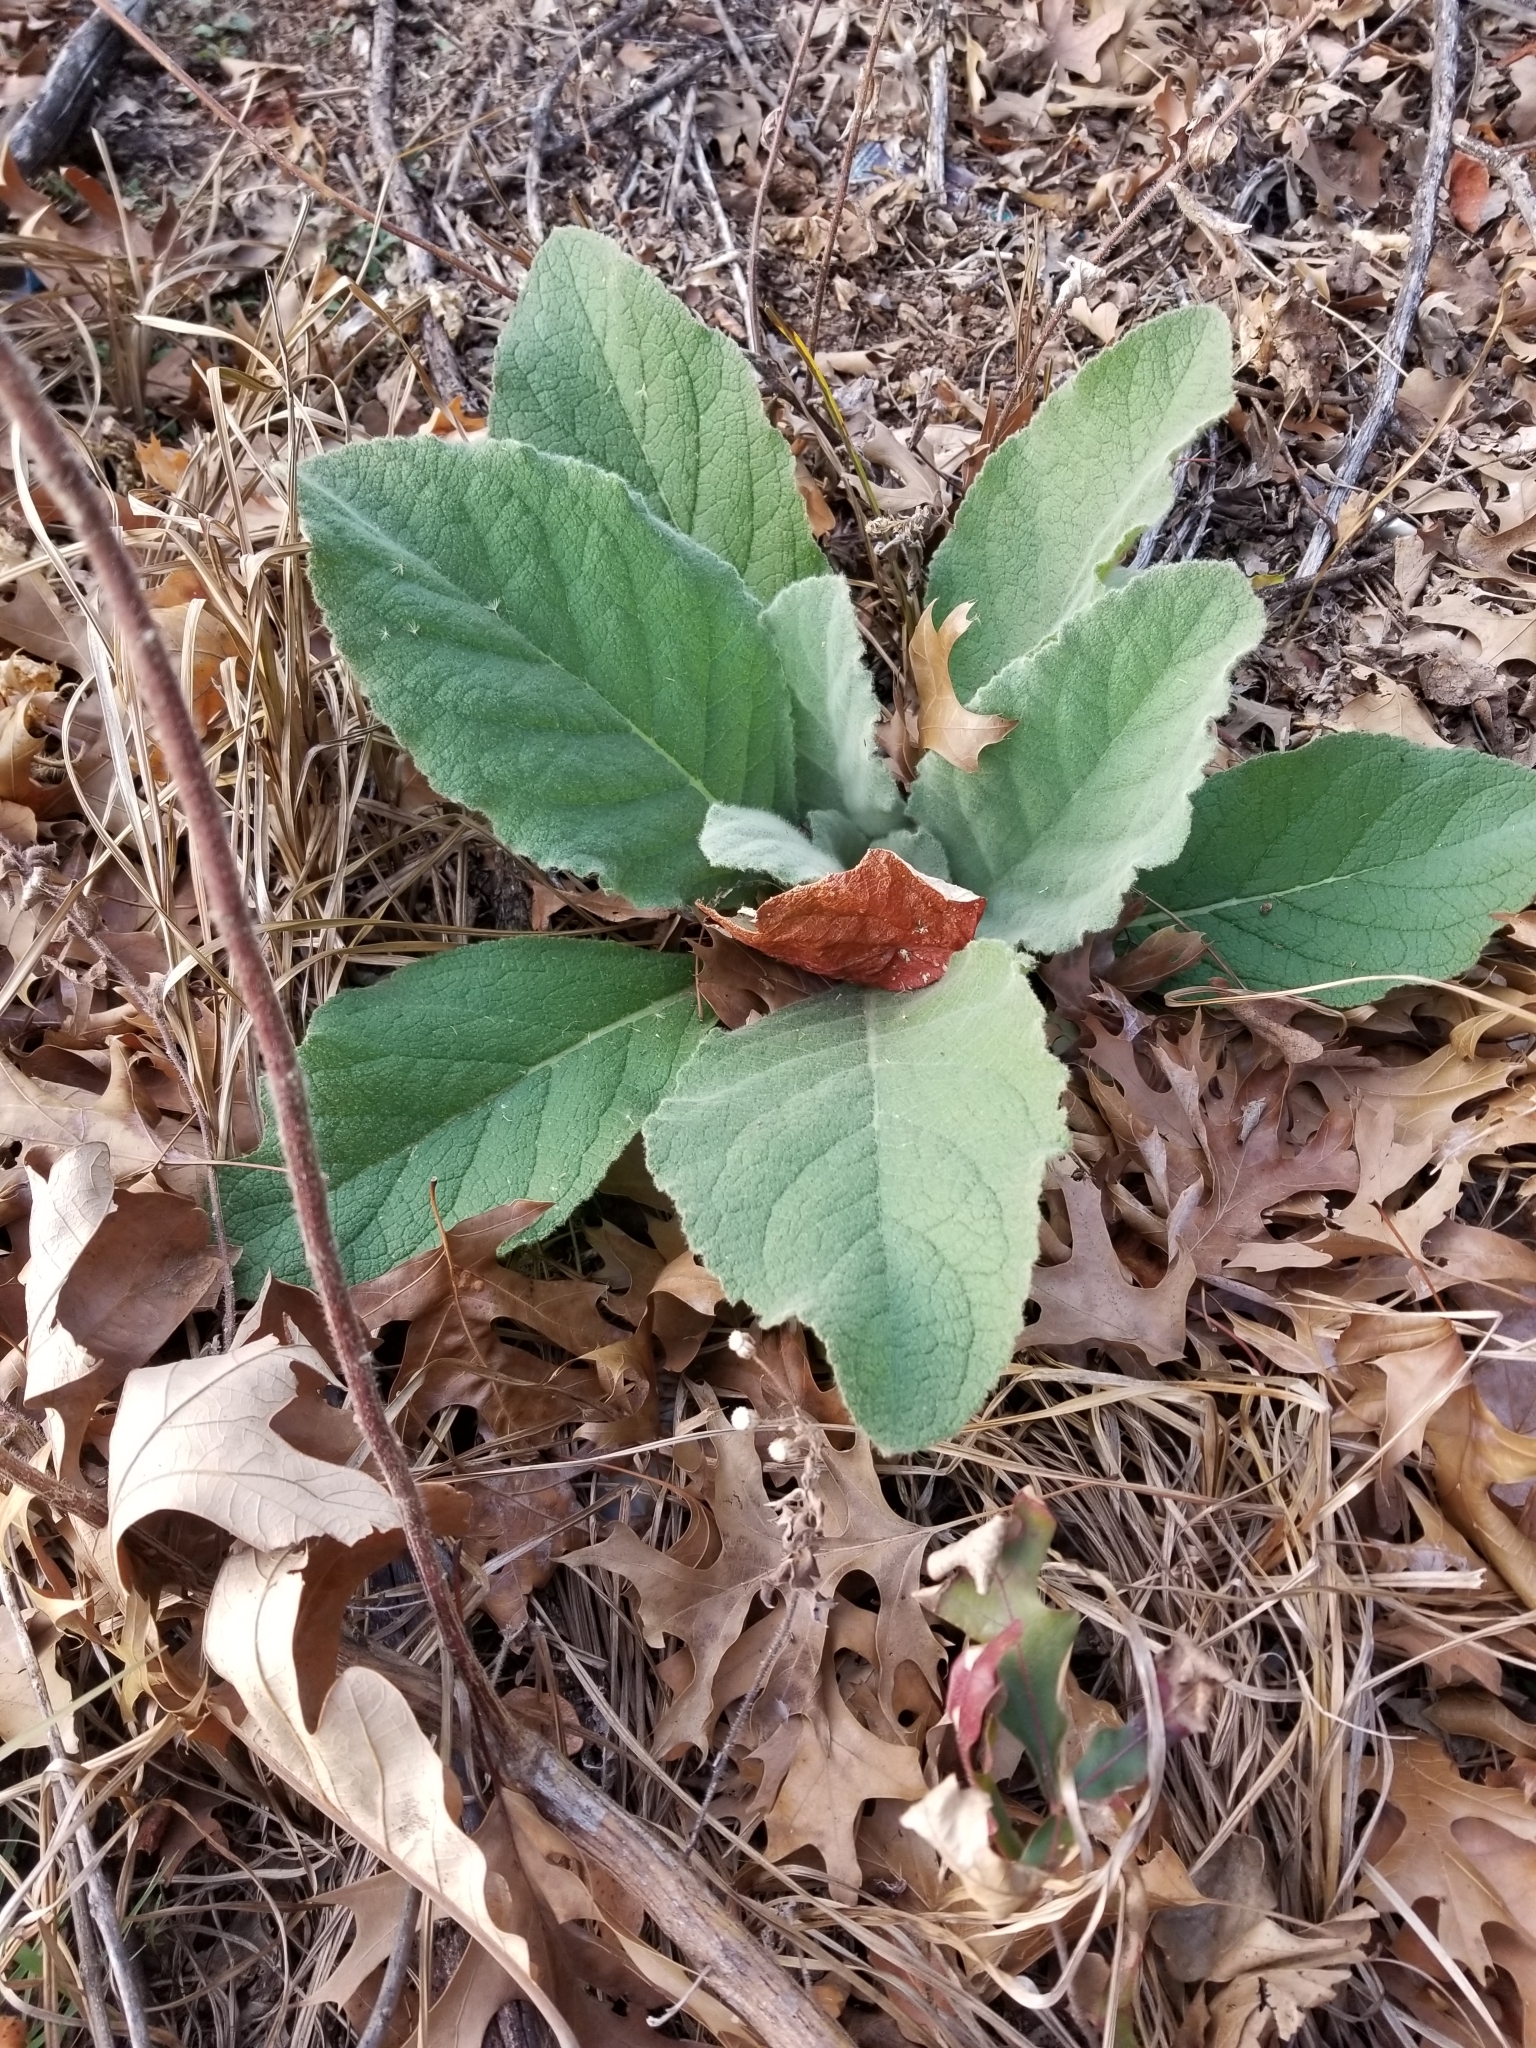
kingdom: Plantae
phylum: Tracheophyta
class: Magnoliopsida
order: Lamiales
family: Scrophulariaceae
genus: Verbascum
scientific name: Verbascum thapsus
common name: Common mullein
